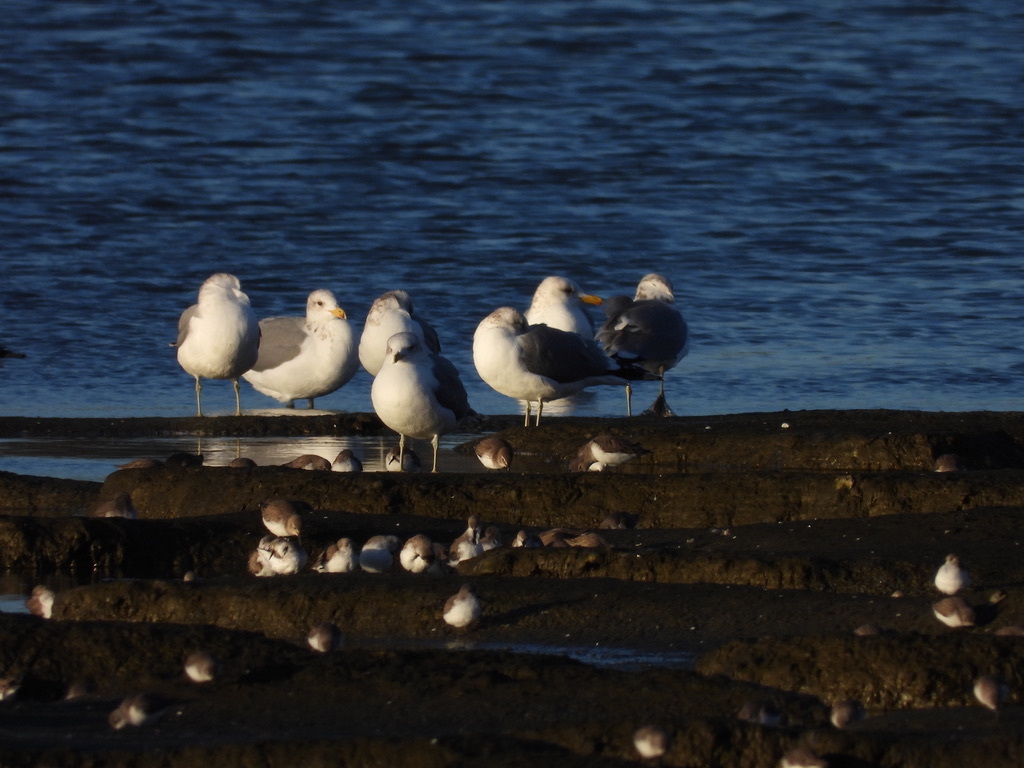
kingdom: Animalia
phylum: Chordata
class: Aves
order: Charadriiformes
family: Laridae
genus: Larus
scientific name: Larus californicus
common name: California gull
